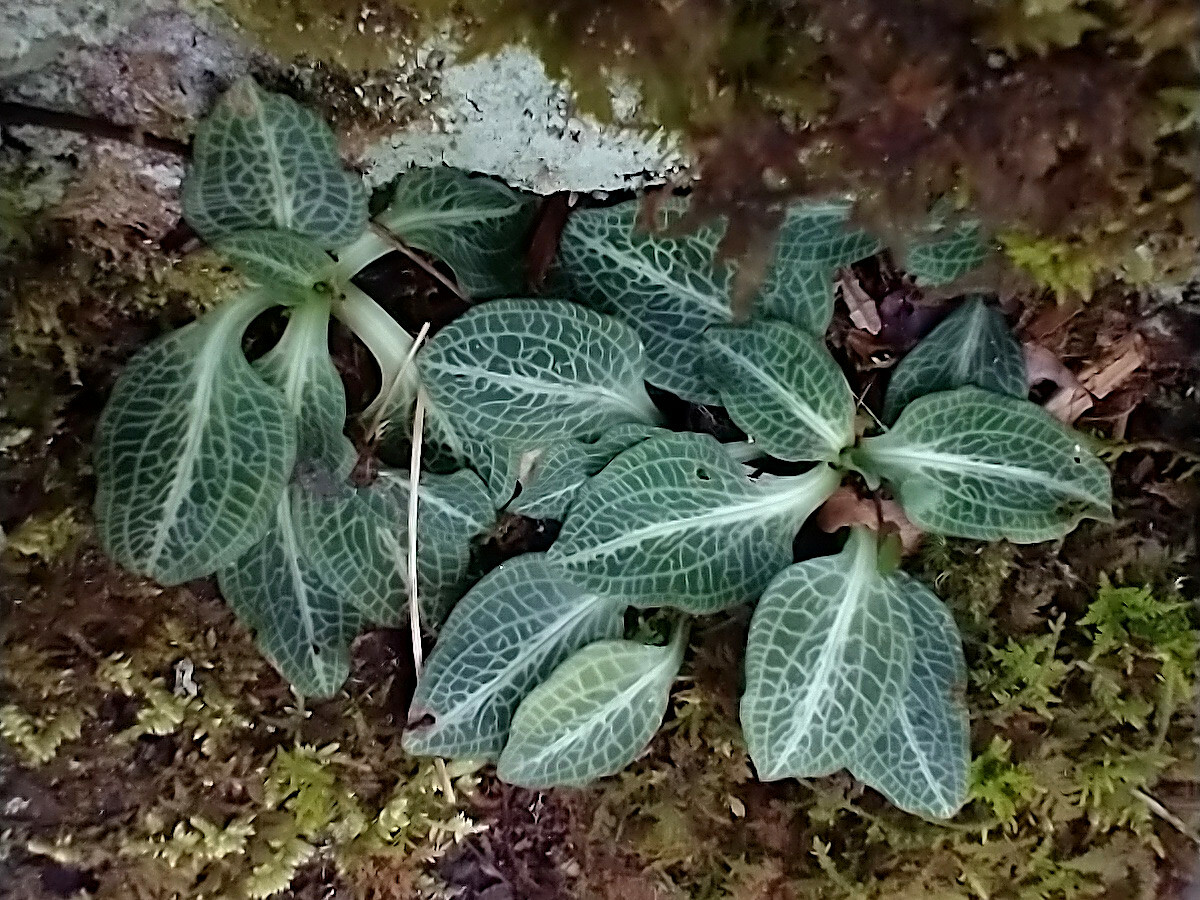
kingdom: Plantae
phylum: Tracheophyta
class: Liliopsida
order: Asparagales
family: Orchidaceae
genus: Goodyera
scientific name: Goodyera pubescens
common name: Downy rattlesnake-plantain
